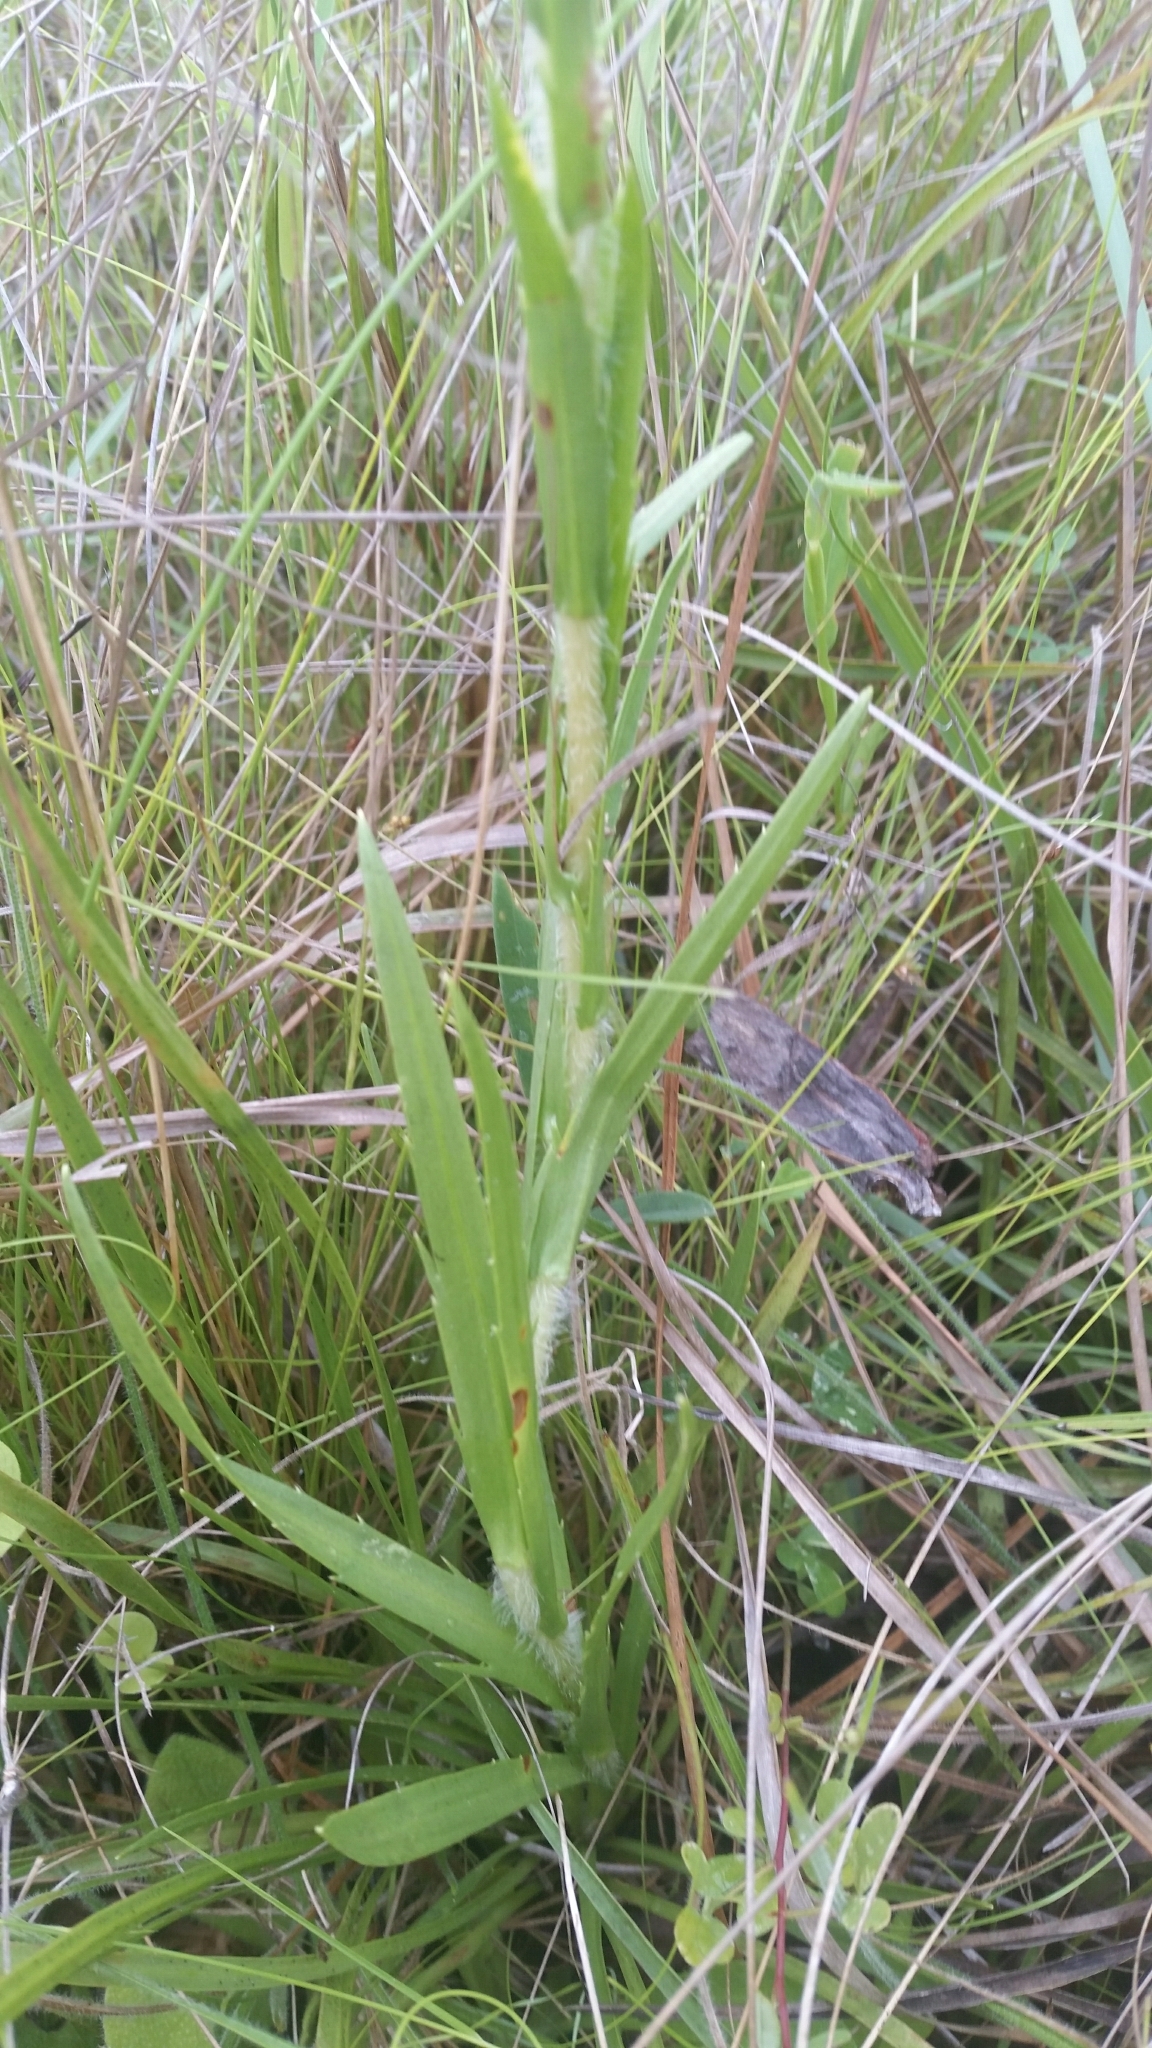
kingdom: Plantae
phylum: Tracheophyta
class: Magnoliopsida
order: Asterales
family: Asteraceae
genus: Eurybia
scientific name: Eurybia eryngiifolia
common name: Thistle-leaf aster
